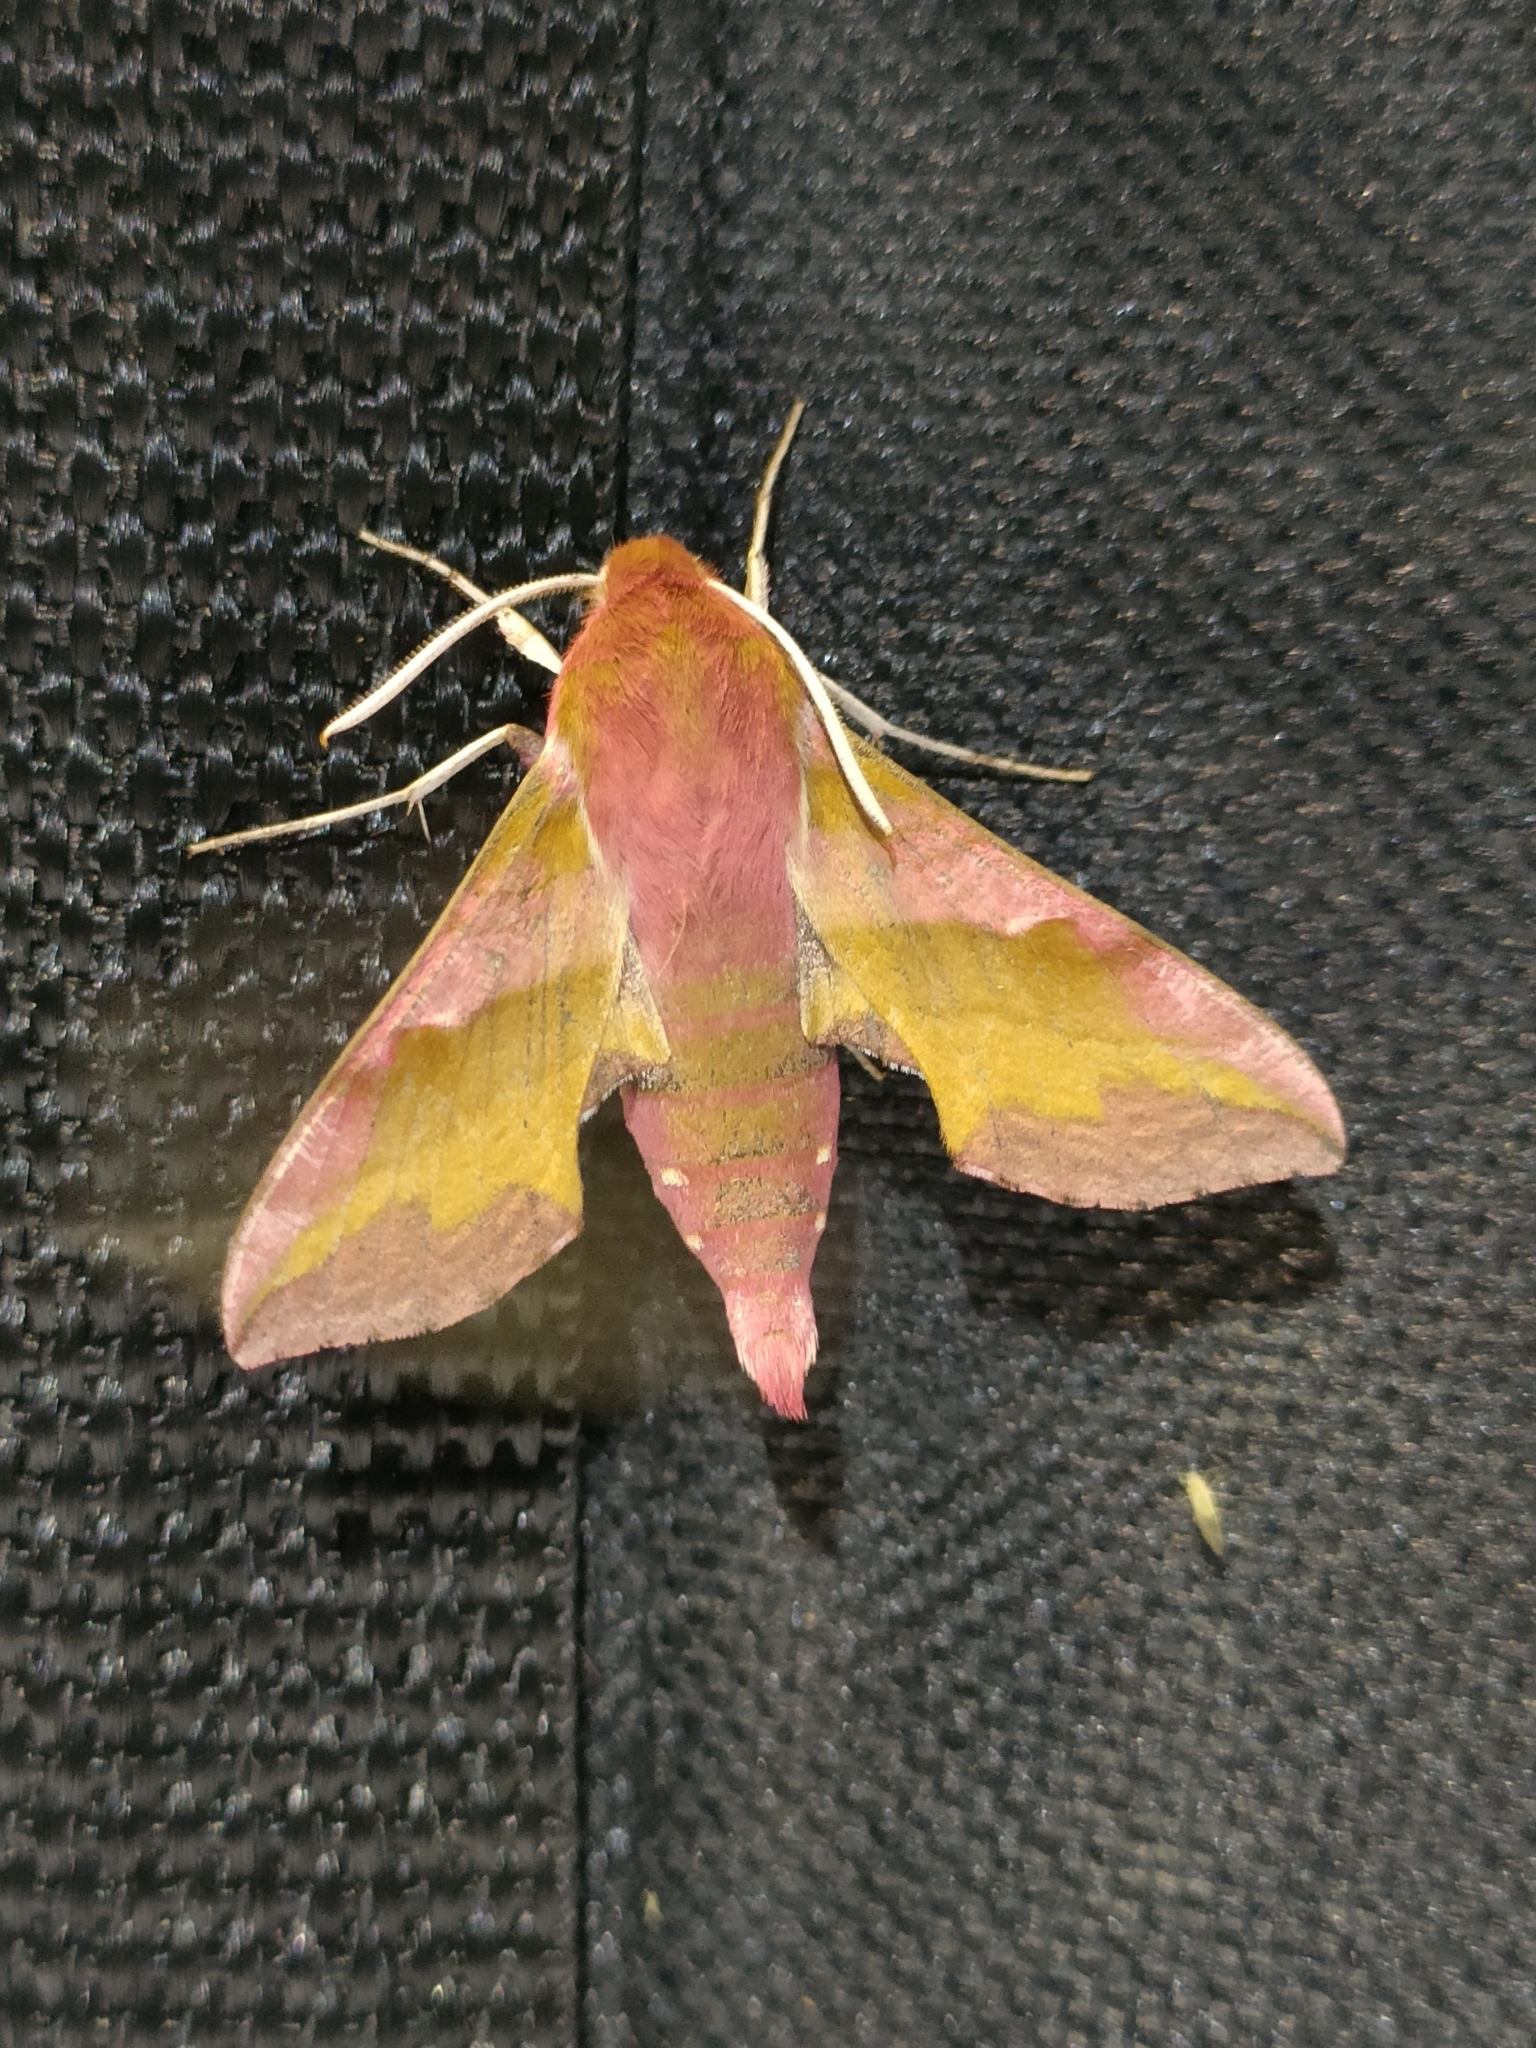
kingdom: Animalia
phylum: Arthropoda
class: Insecta
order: Lepidoptera
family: Sphingidae
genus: Deilephila
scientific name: Deilephila porcellus
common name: Small elephant hawk-moth
